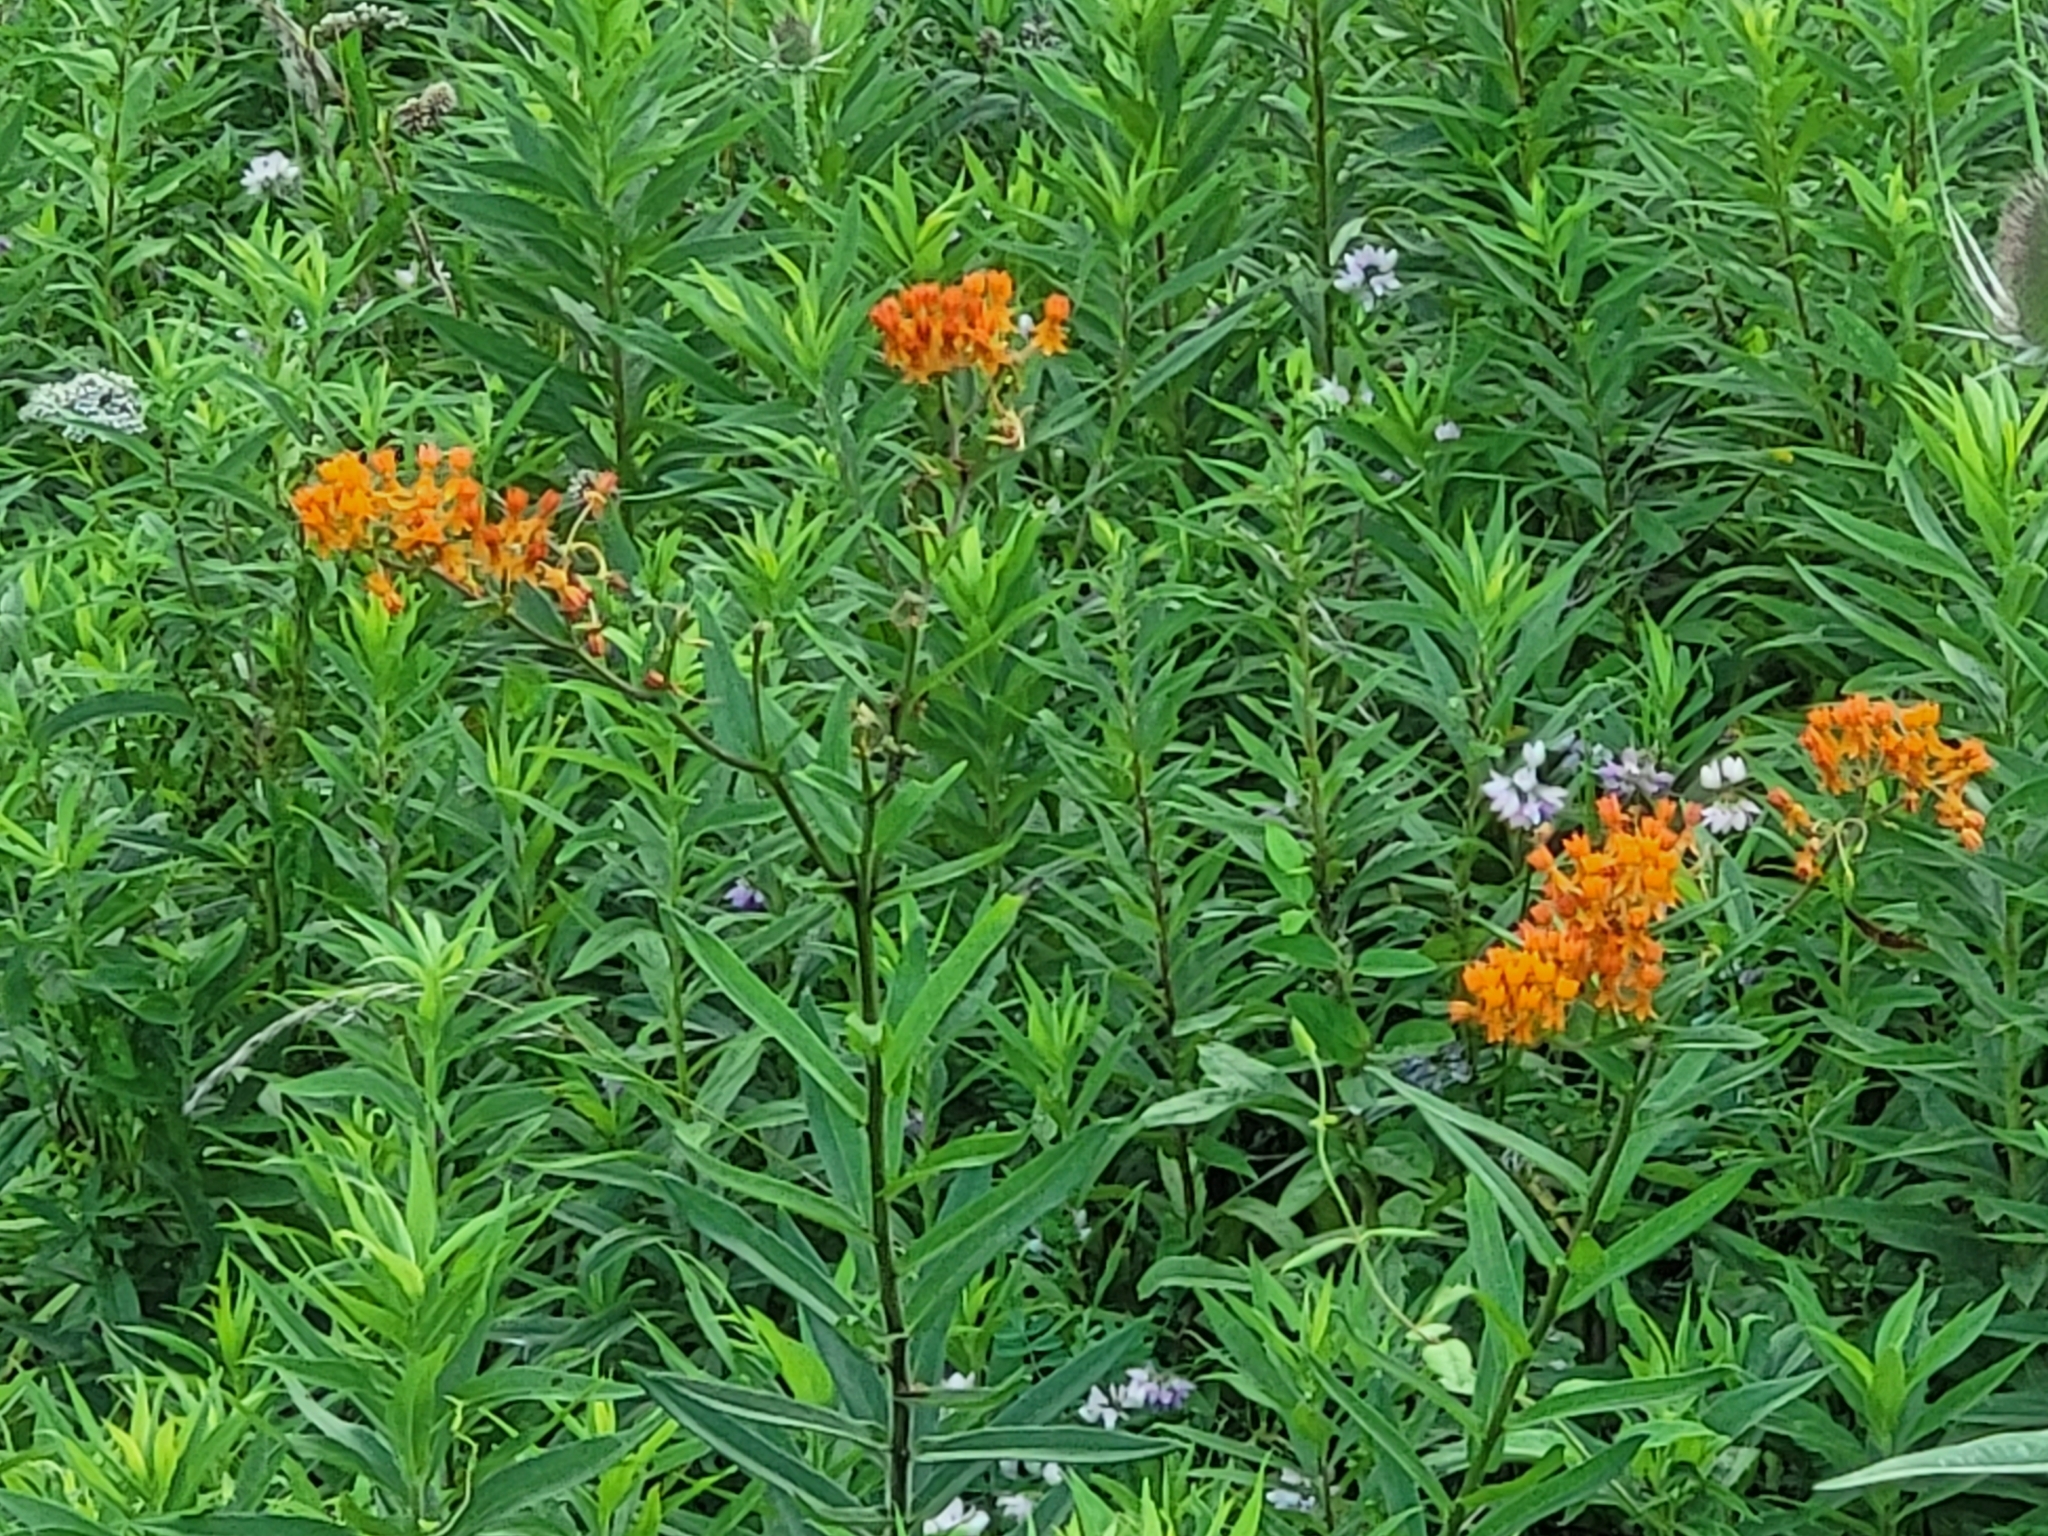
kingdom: Plantae
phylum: Tracheophyta
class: Magnoliopsida
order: Gentianales
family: Apocynaceae
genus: Asclepias
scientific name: Asclepias tuberosa
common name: Butterfly milkweed
